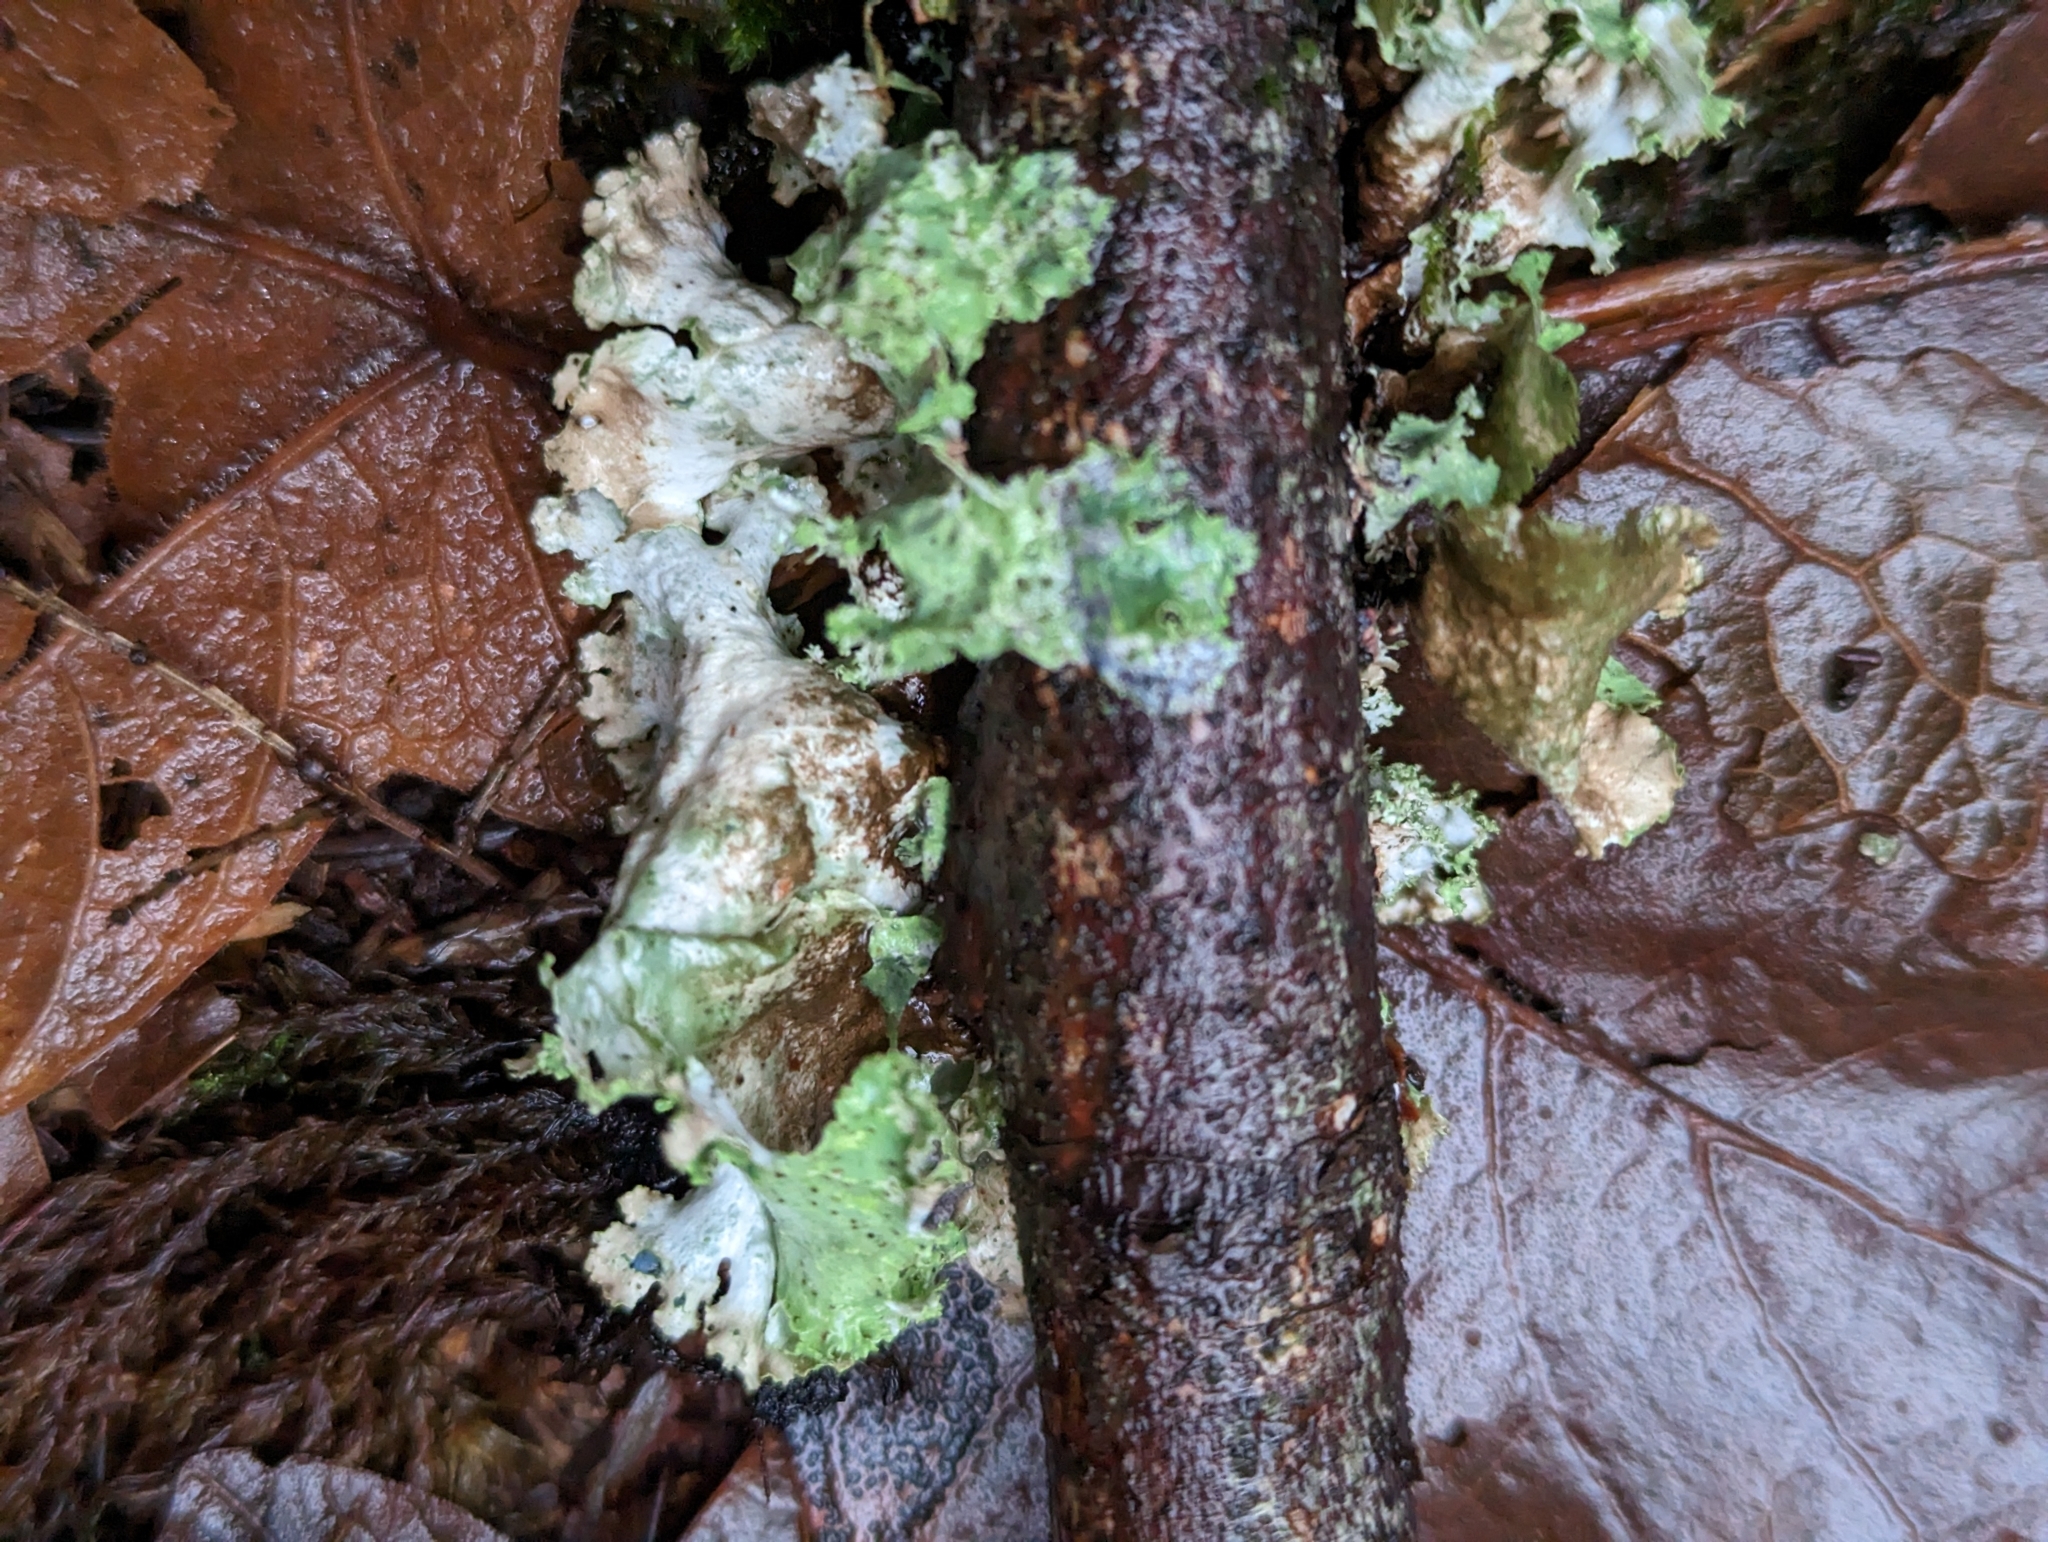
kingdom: Fungi
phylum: Ascomycota
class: Lecanoromycetes
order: Lecanorales
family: Parmeliaceae
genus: Platismatia
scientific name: Platismatia glauca
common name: Varied rag lichen
